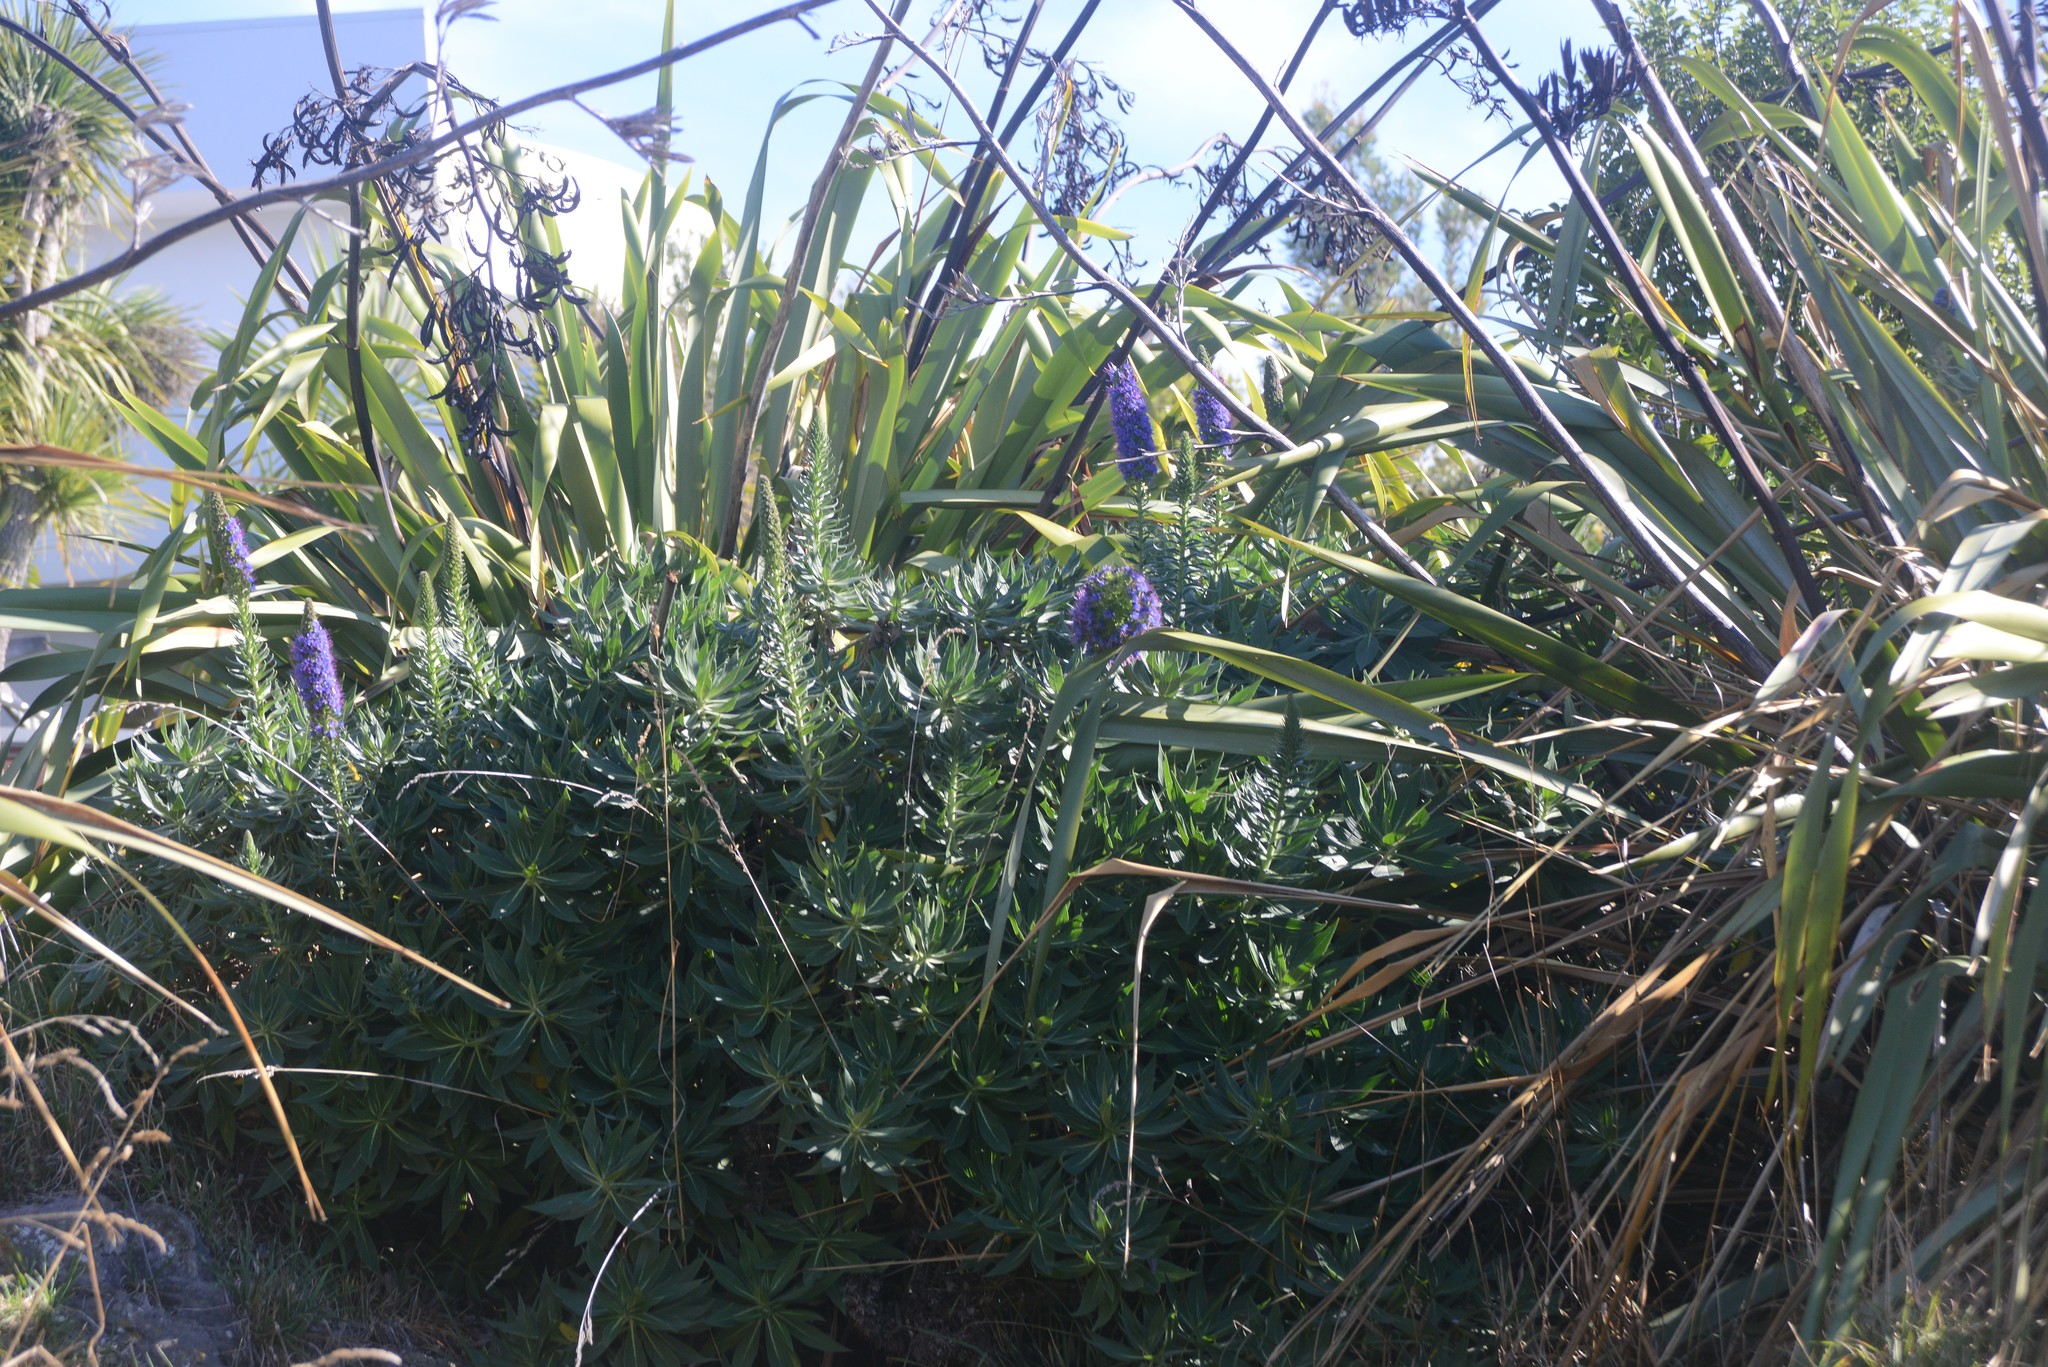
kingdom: Plantae
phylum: Tracheophyta
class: Magnoliopsida
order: Boraginales
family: Boraginaceae
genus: Echium
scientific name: Echium candicans
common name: Pride of madeira
